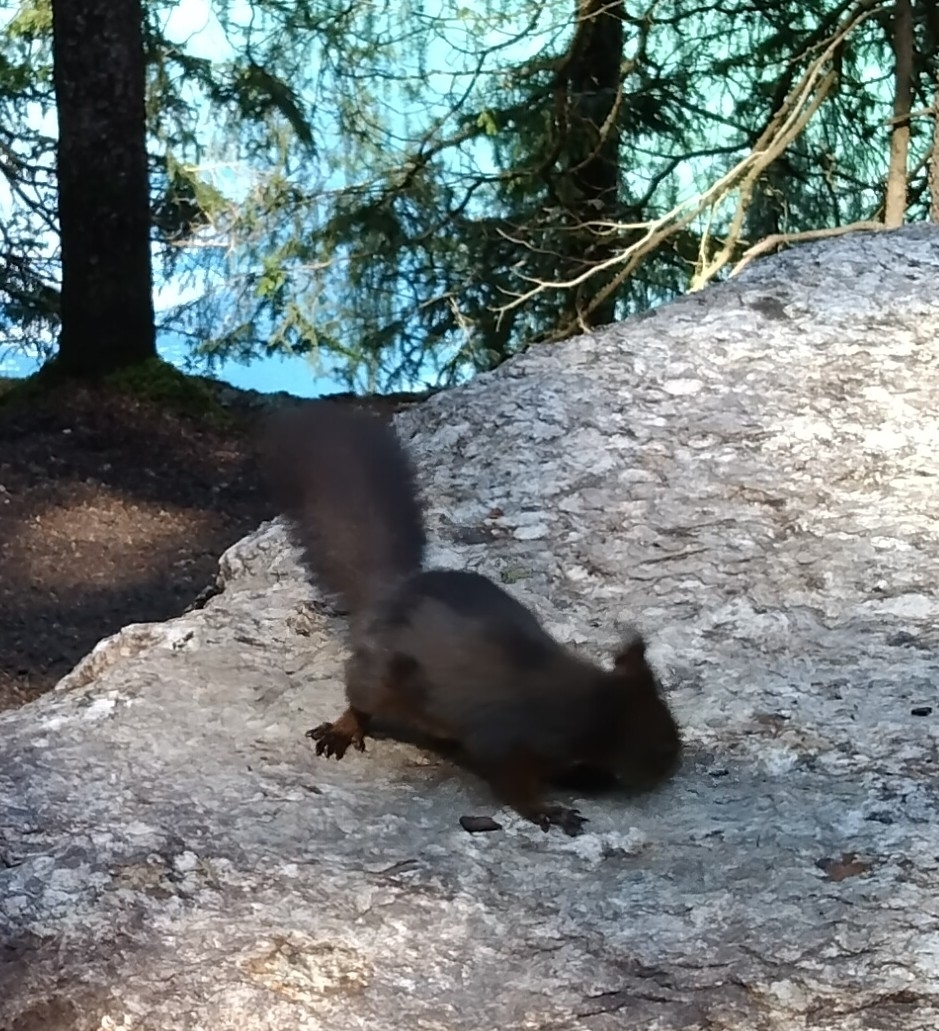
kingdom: Animalia
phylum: Chordata
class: Mammalia
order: Rodentia
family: Sciuridae
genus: Sciurus
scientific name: Sciurus vulgaris
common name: Eurasian red squirrel
